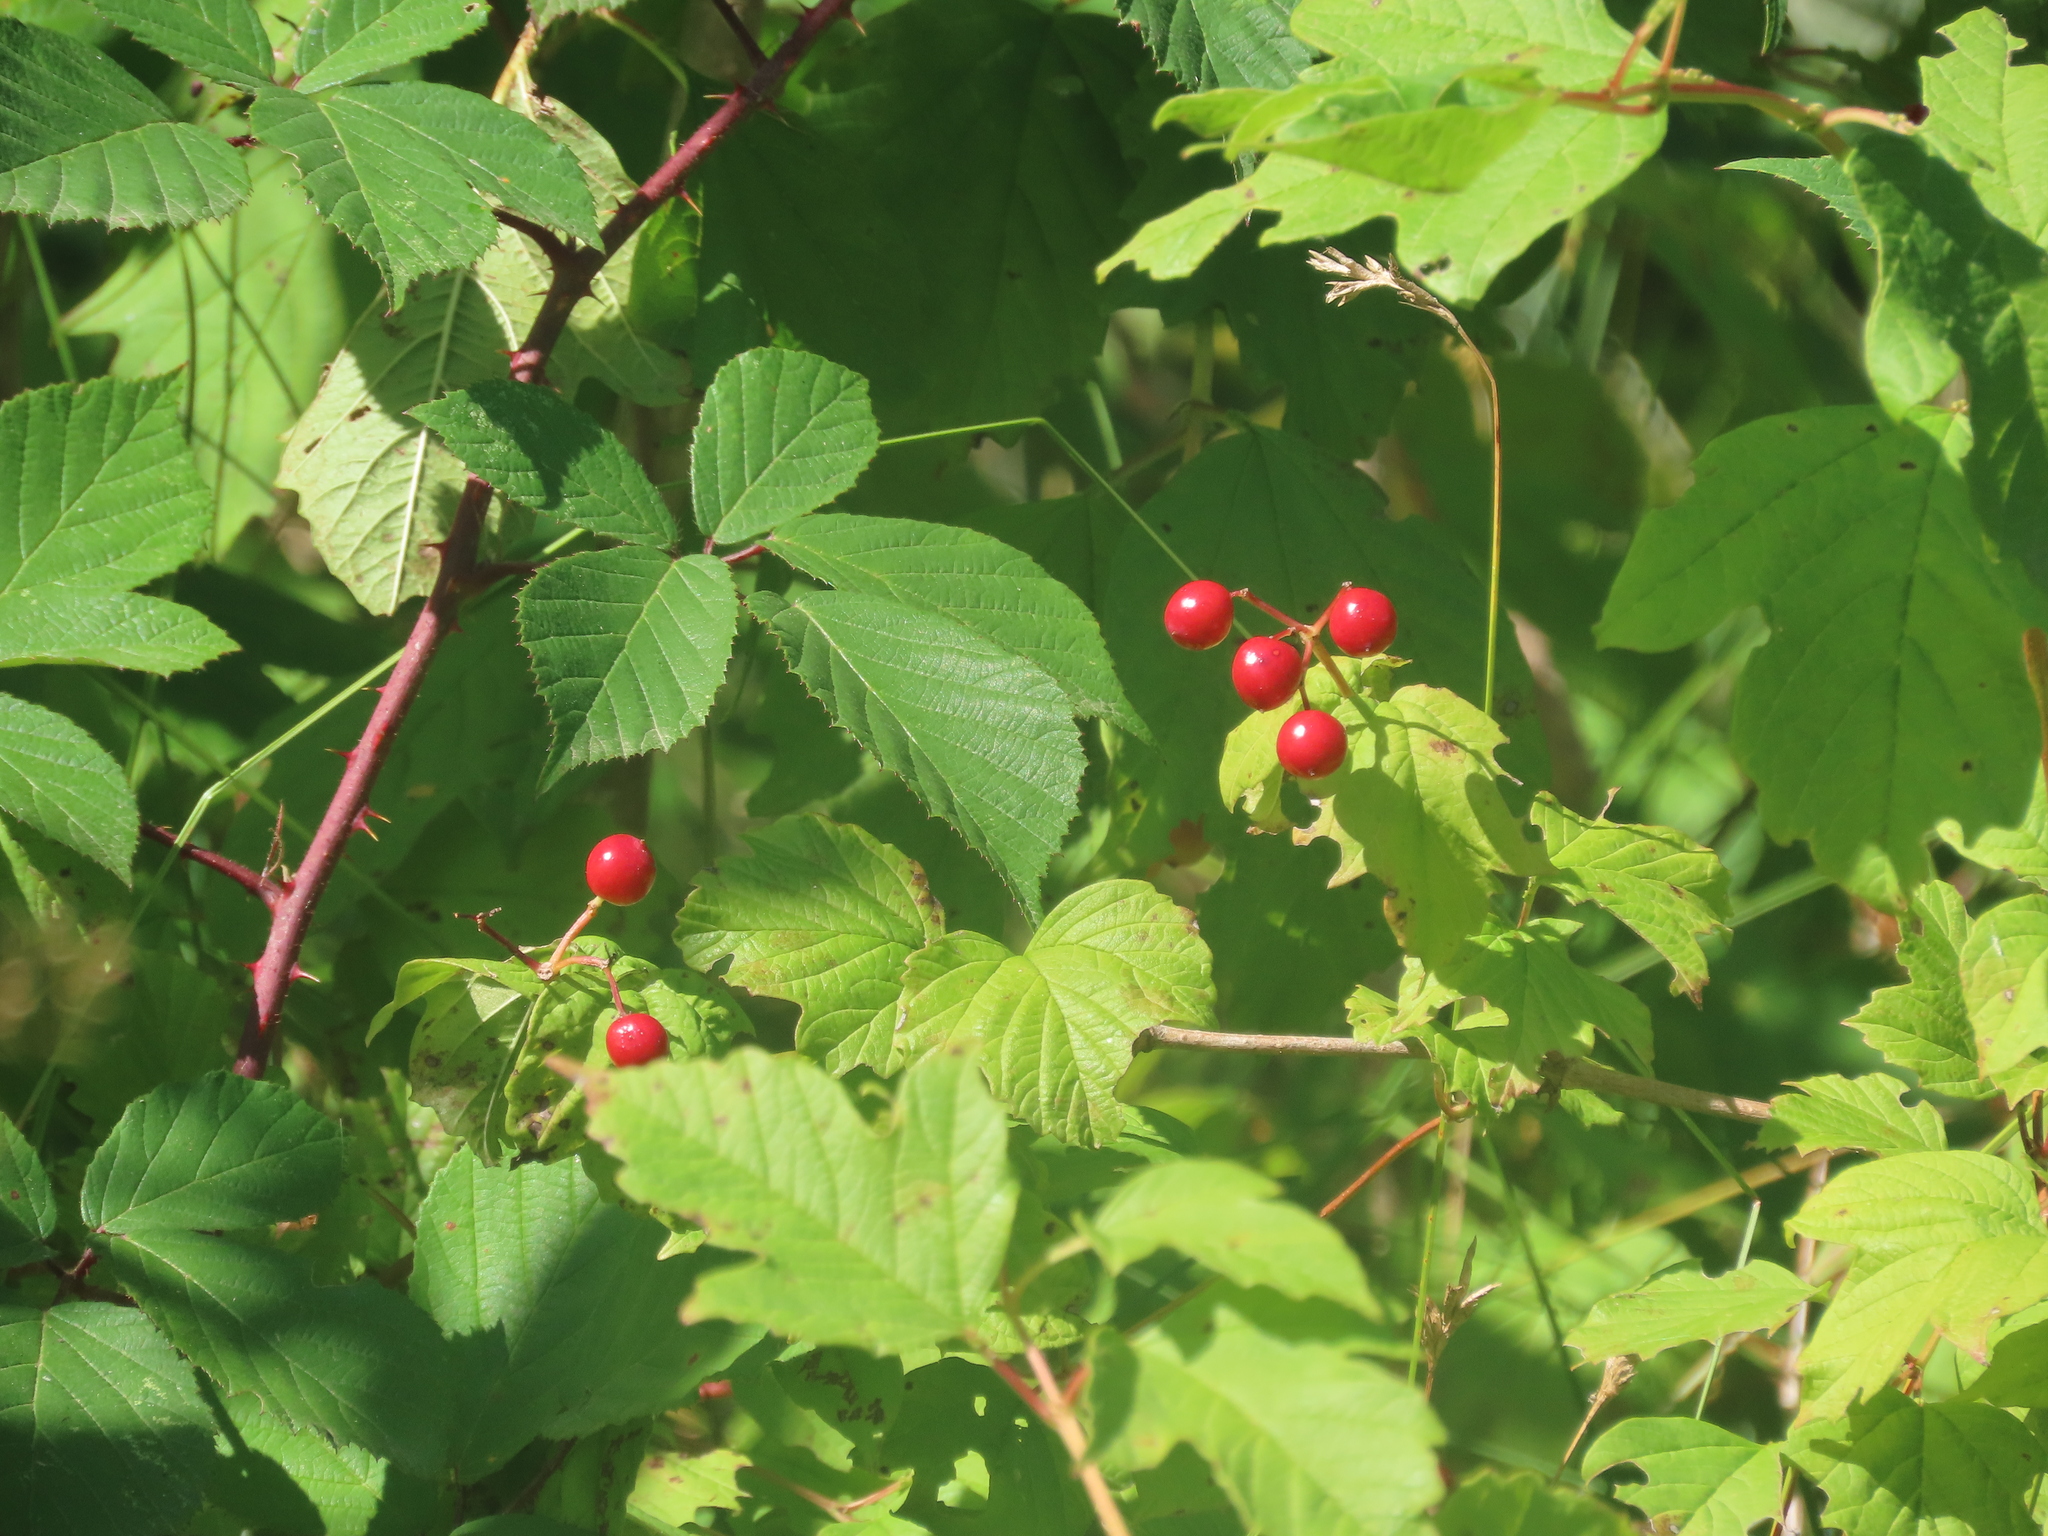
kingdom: Plantae
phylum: Tracheophyta
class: Magnoliopsida
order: Dipsacales
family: Viburnaceae
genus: Viburnum
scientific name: Viburnum opulus
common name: Guelder-rose
